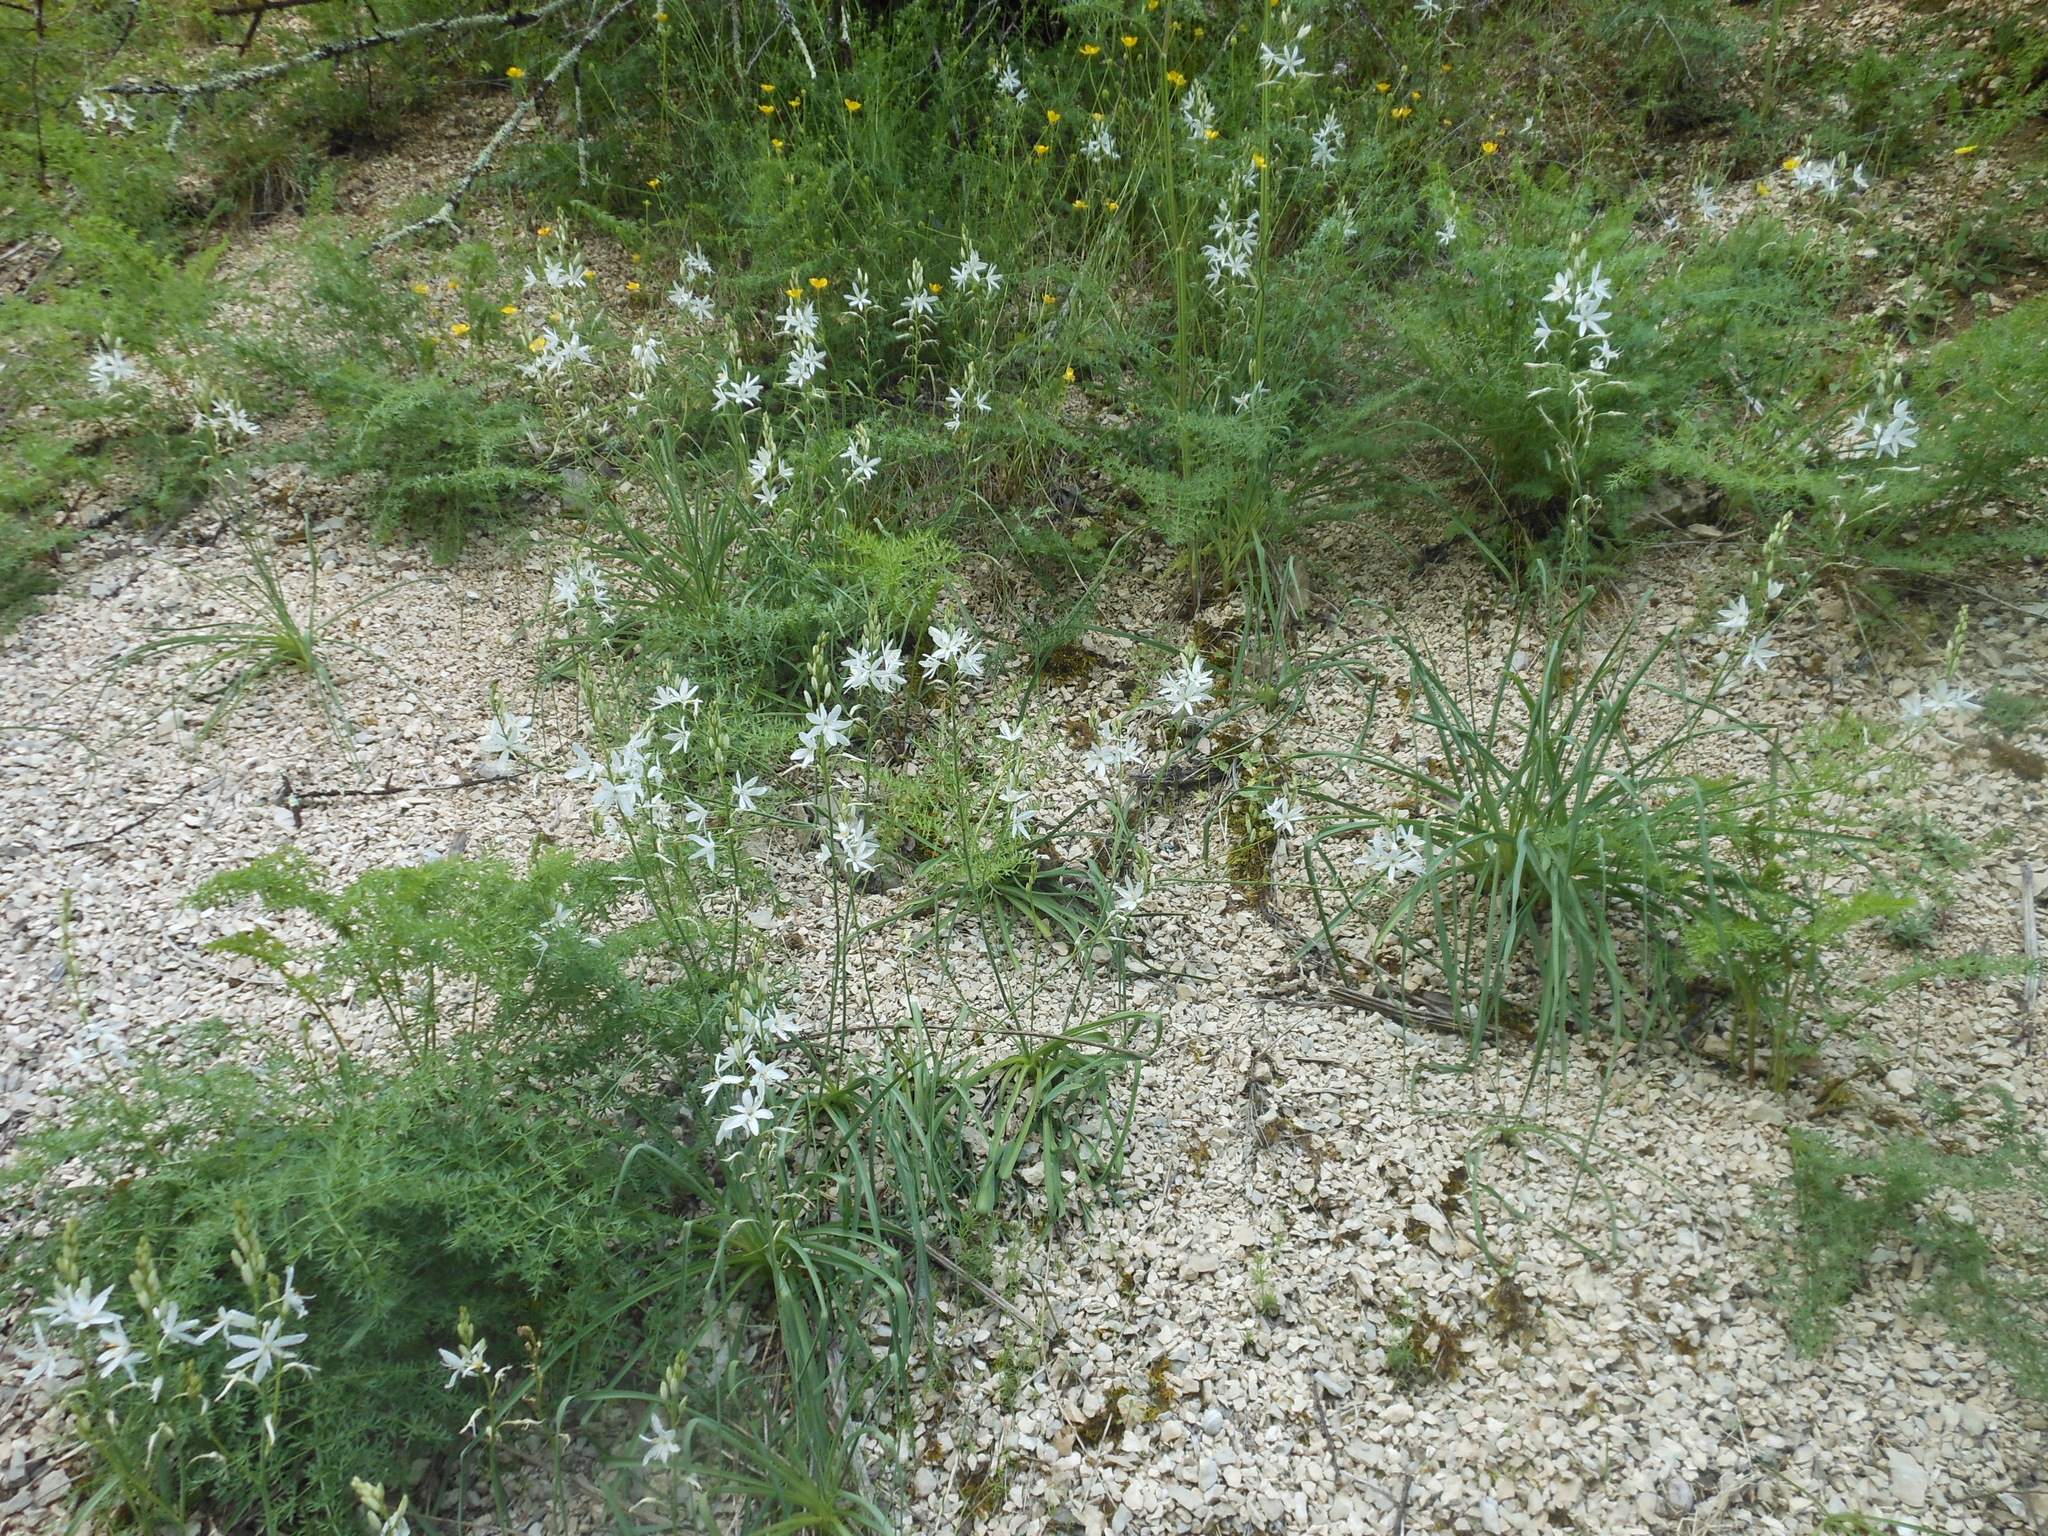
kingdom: Plantae
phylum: Tracheophyta
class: Liliopsida
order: Asparagales
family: Asparagaceae
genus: Anthericum
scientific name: Anthericum liliago
